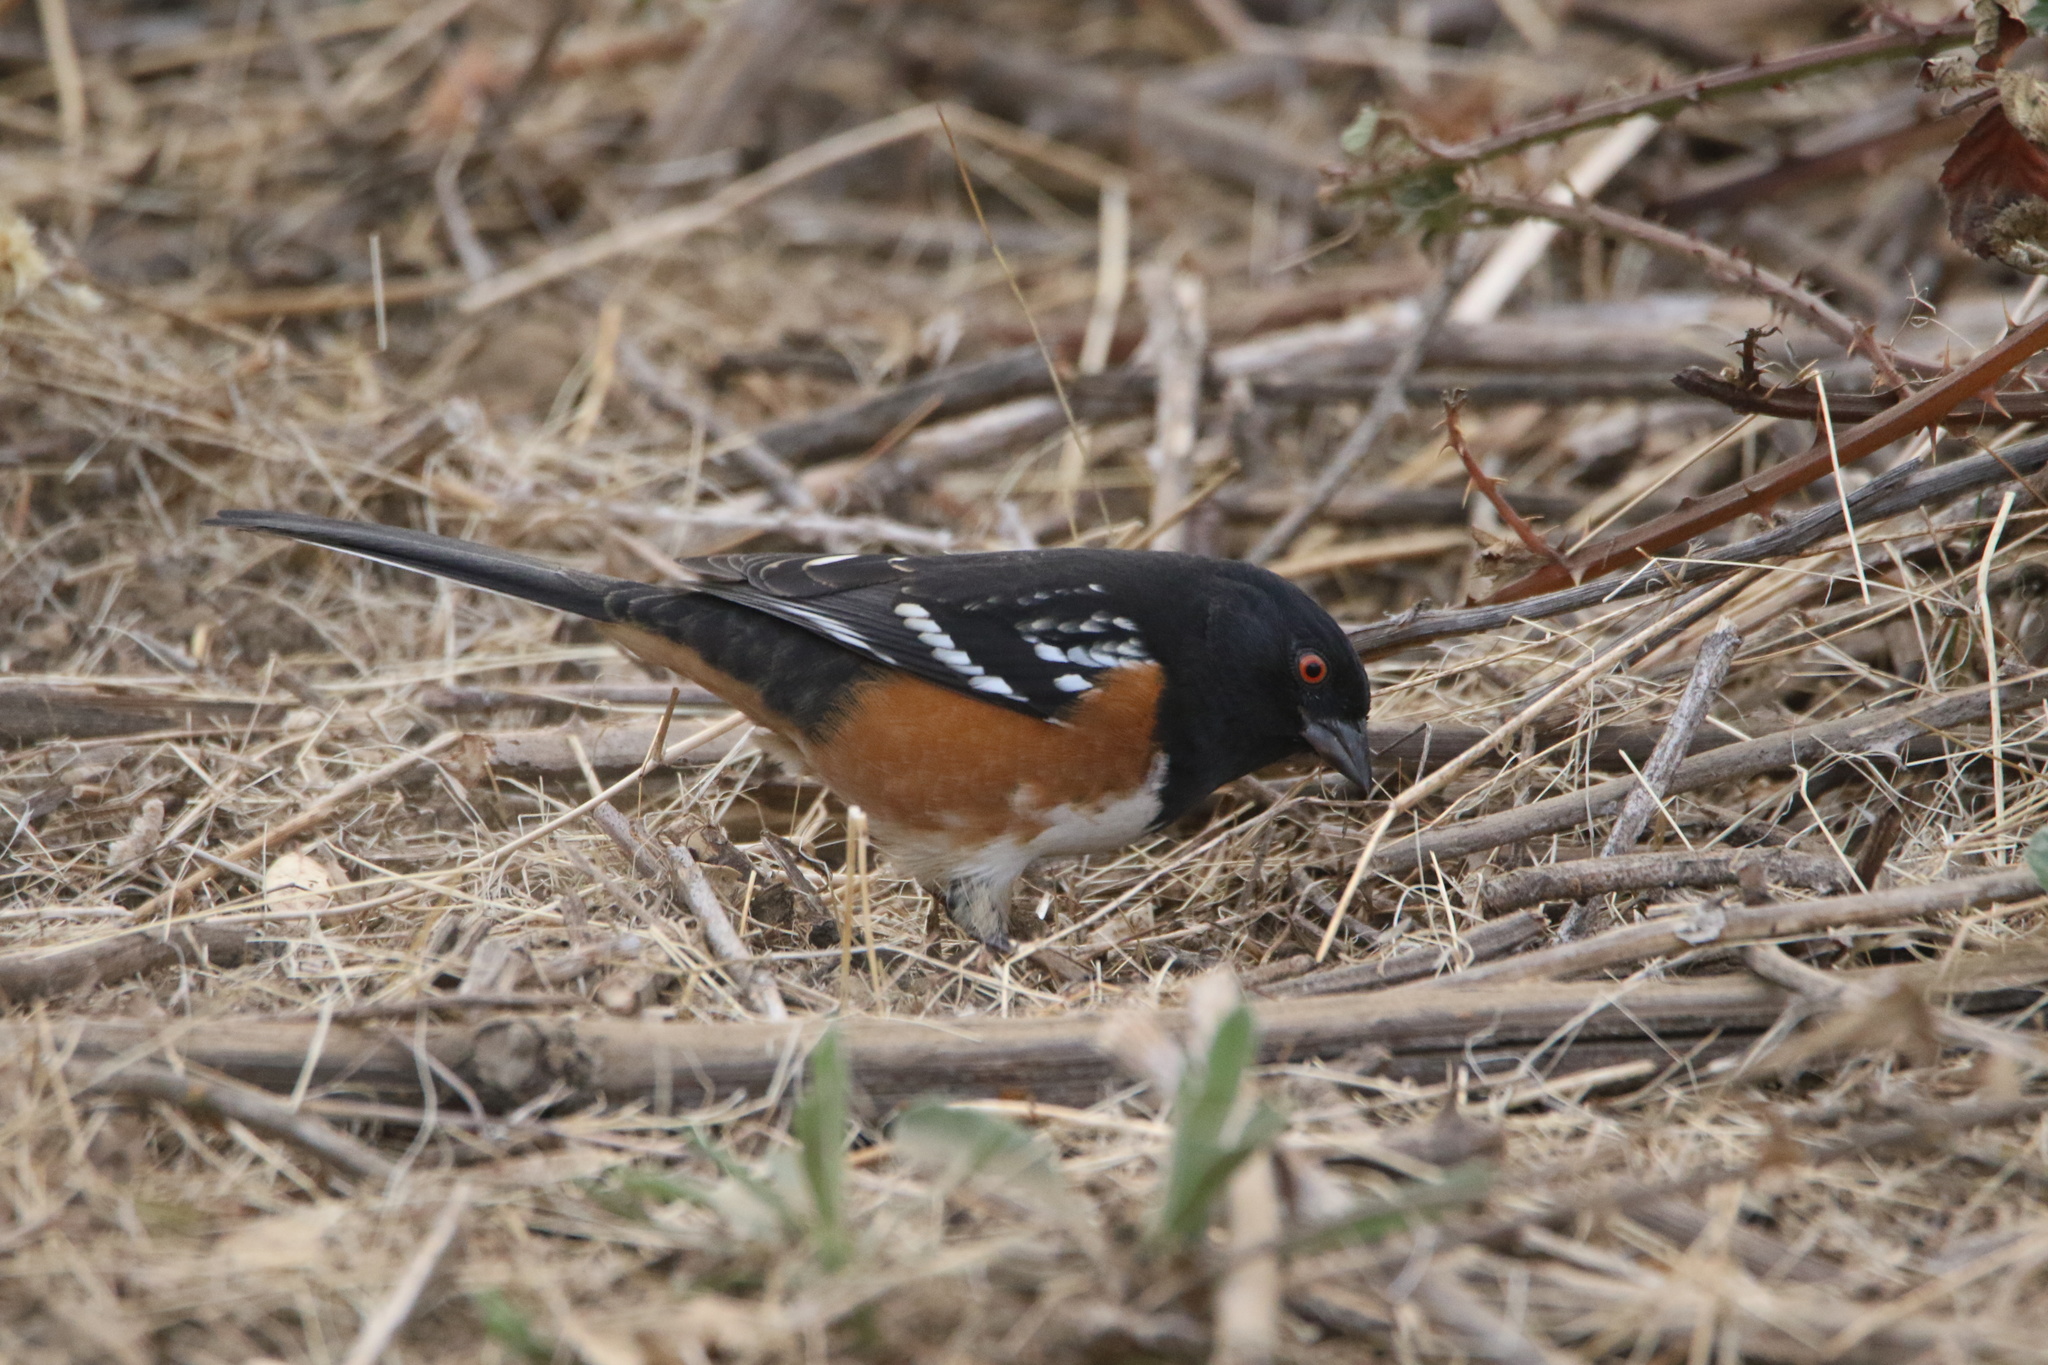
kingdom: Animalia
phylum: Chordata
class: Aves
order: Passeriformes
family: Passerellidae
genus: Pipilo
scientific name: Pipilo maculatus
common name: Spotted towhee
